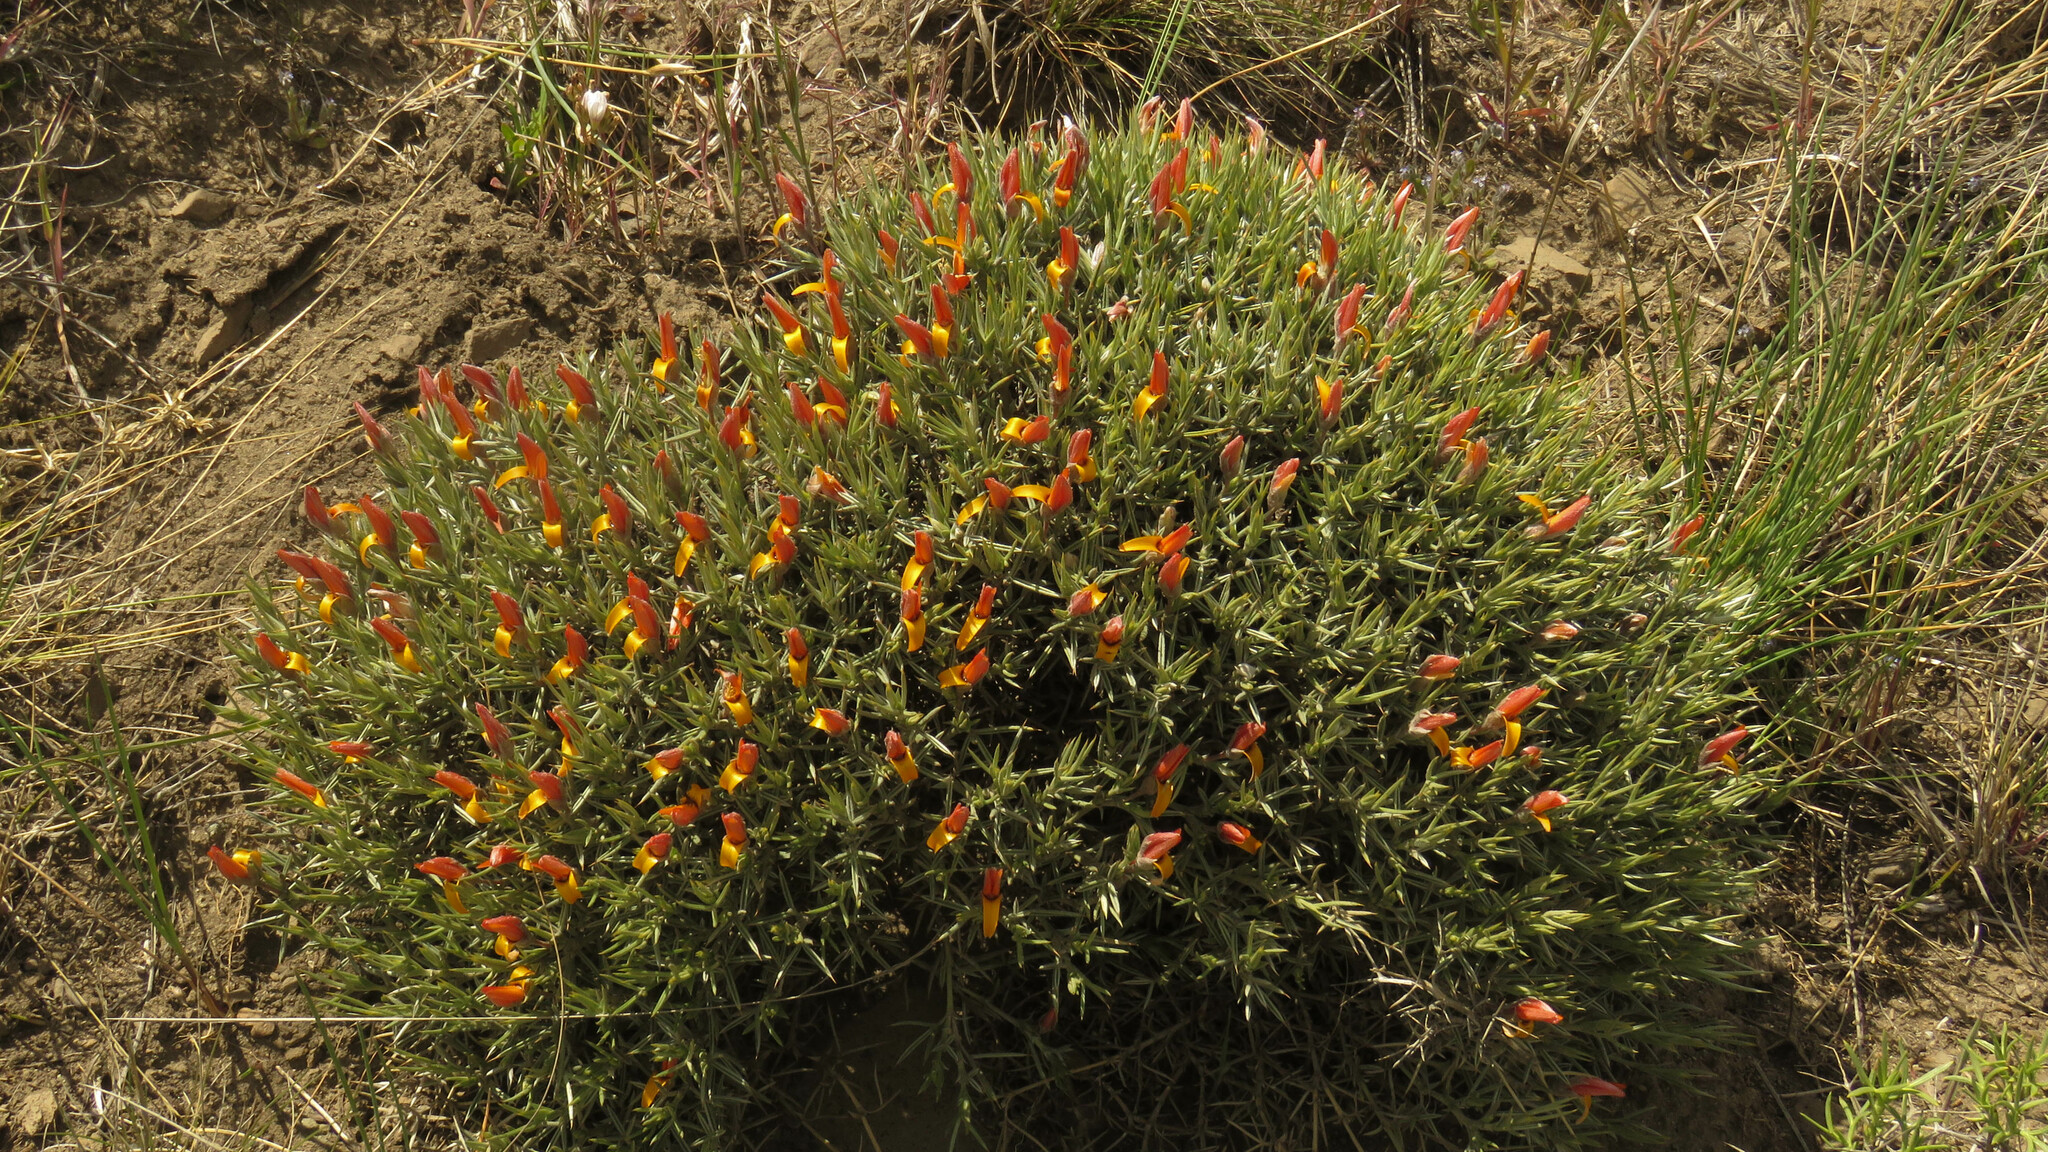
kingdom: Plantae
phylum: Tracheophyta
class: Magnoliopsida
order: Fabales
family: Fabaceae
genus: Anarthrophyllum
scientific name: Anarthrophyllum strigulipetalum
